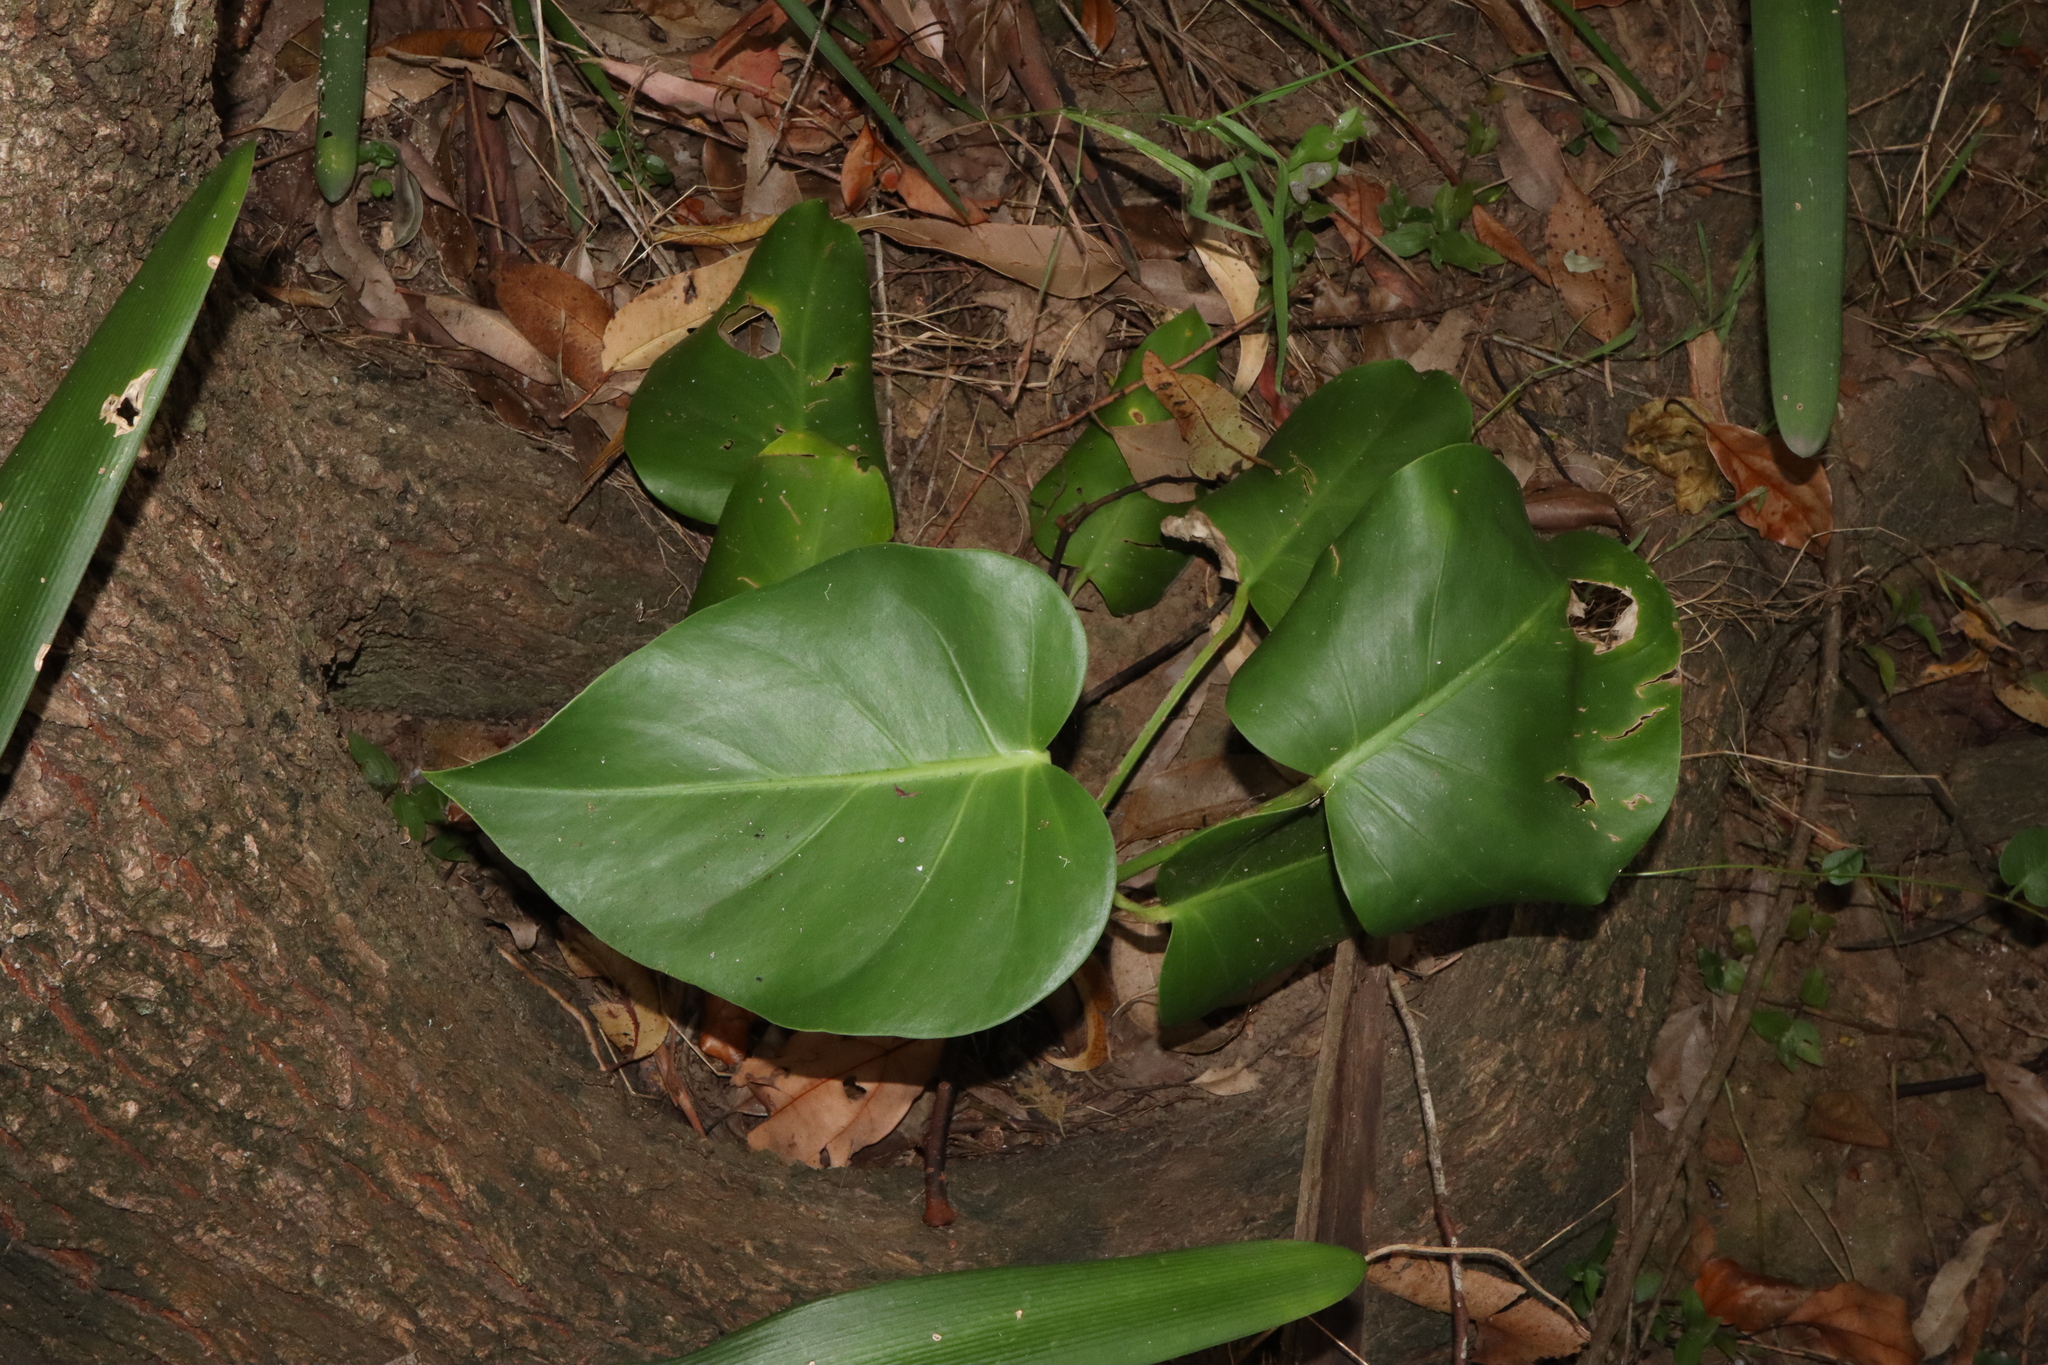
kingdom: Plantae
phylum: Tracheophyta
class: Liliopsida
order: Alismatales
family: Araceae
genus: Monstera
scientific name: Monstera deliciosa
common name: Cut-leaf-philodendron
